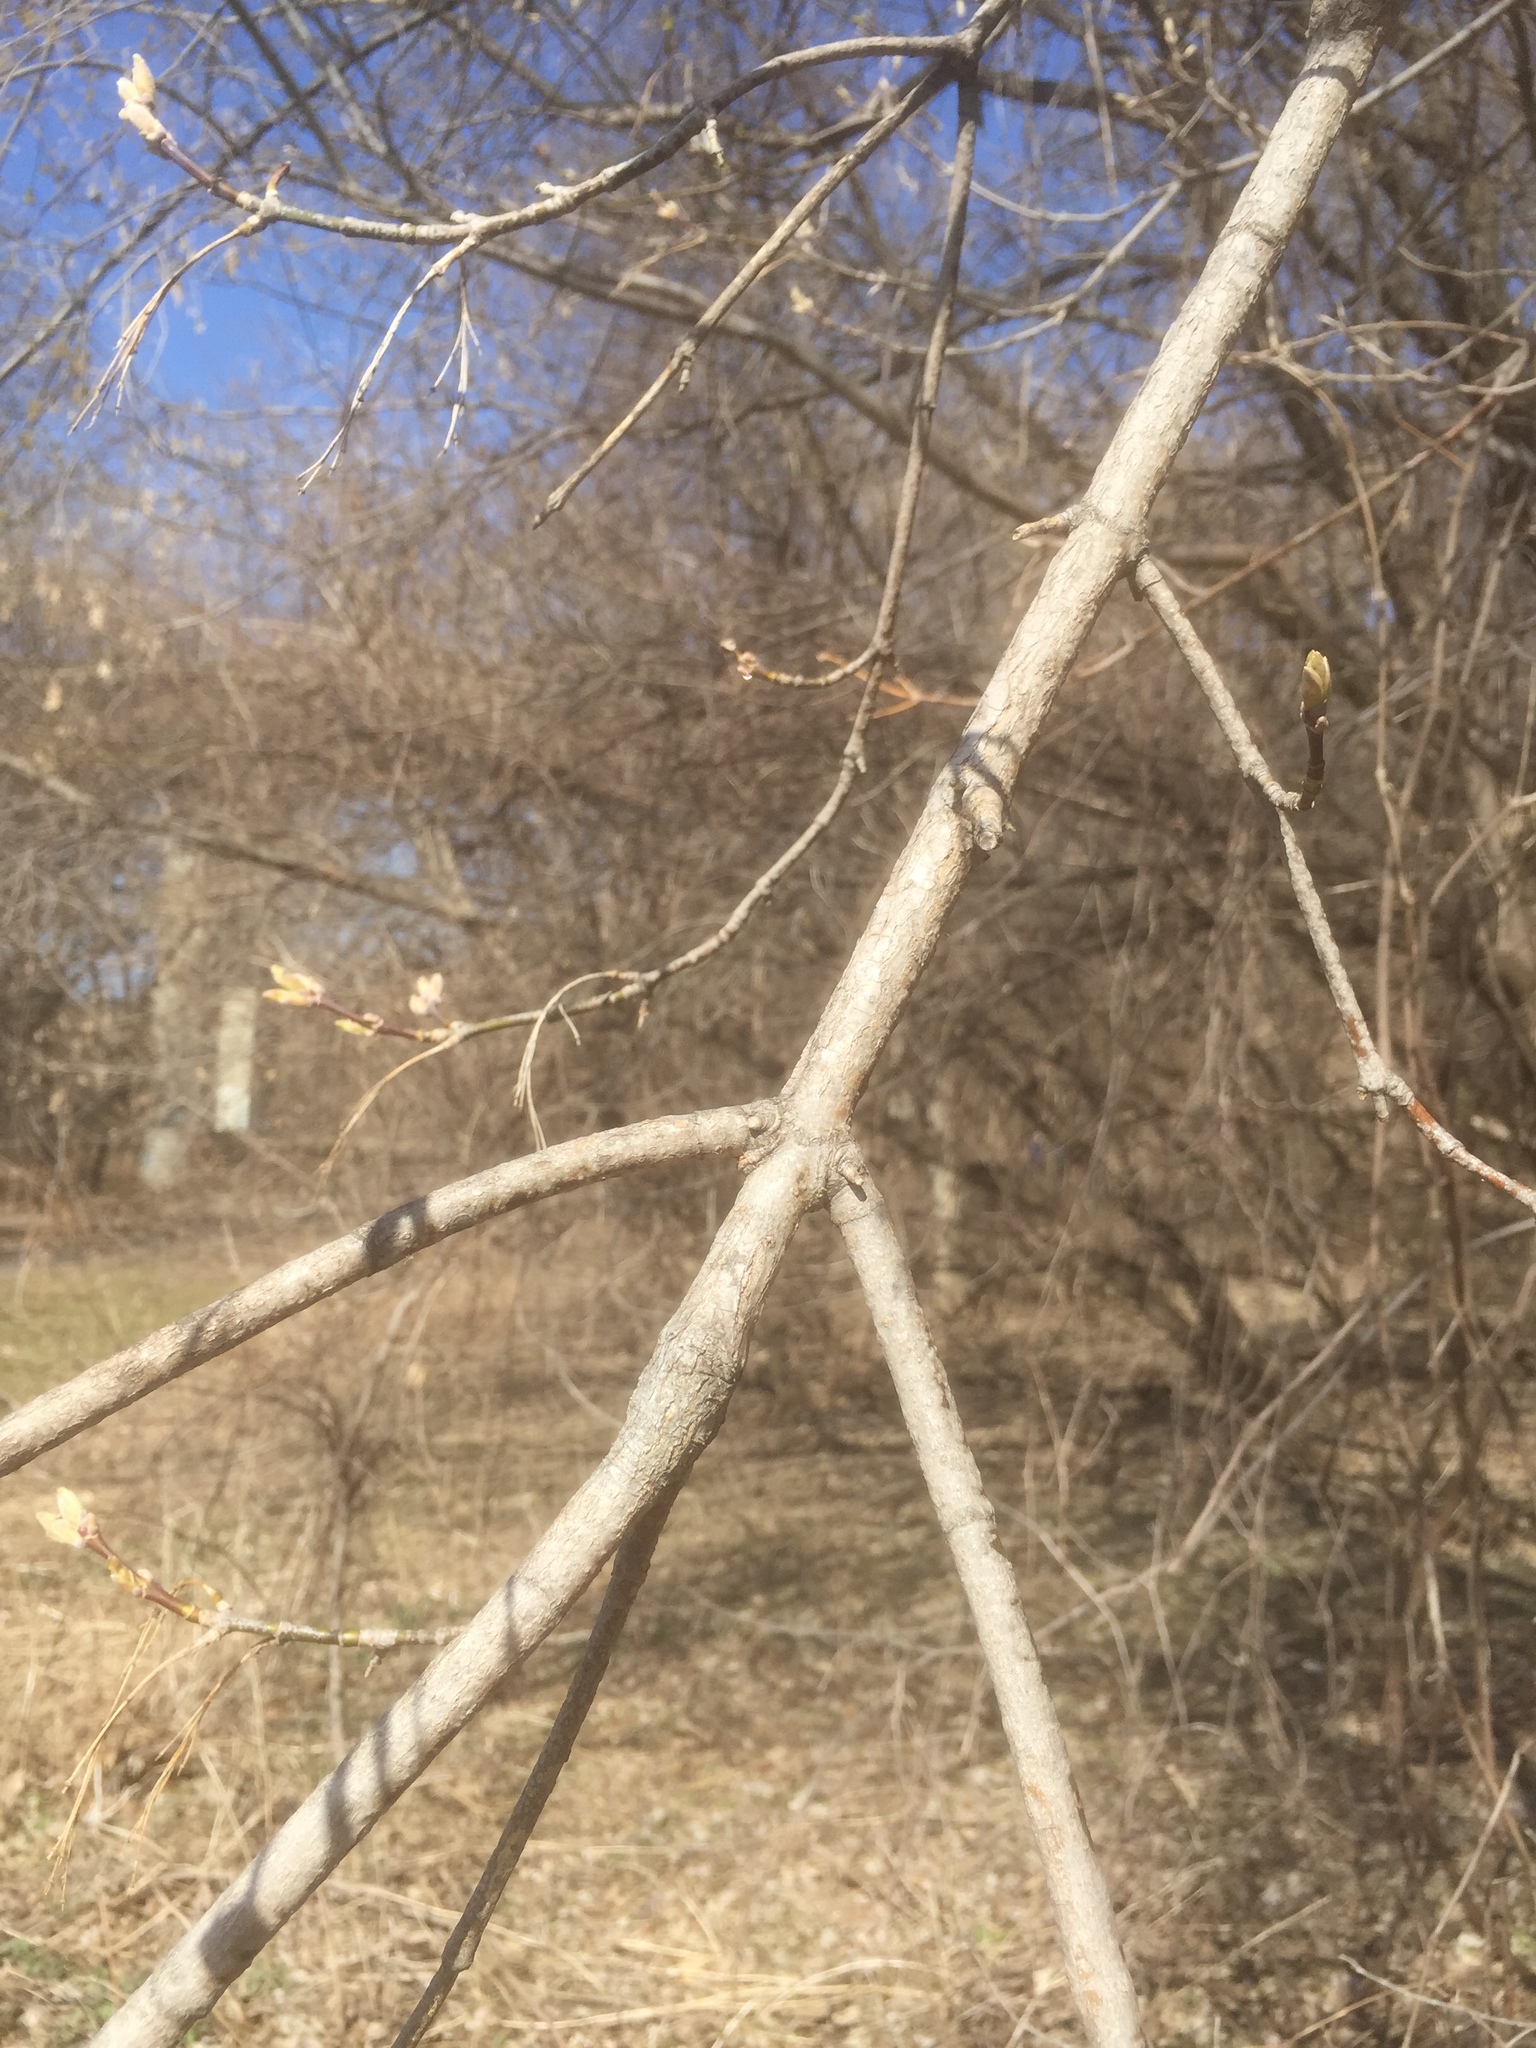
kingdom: Plantae
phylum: Tracheophyta
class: Magnoliopsida
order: Sapindales
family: Sapindaceae
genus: Acer
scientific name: Acer negundo
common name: Ashleaf maple
